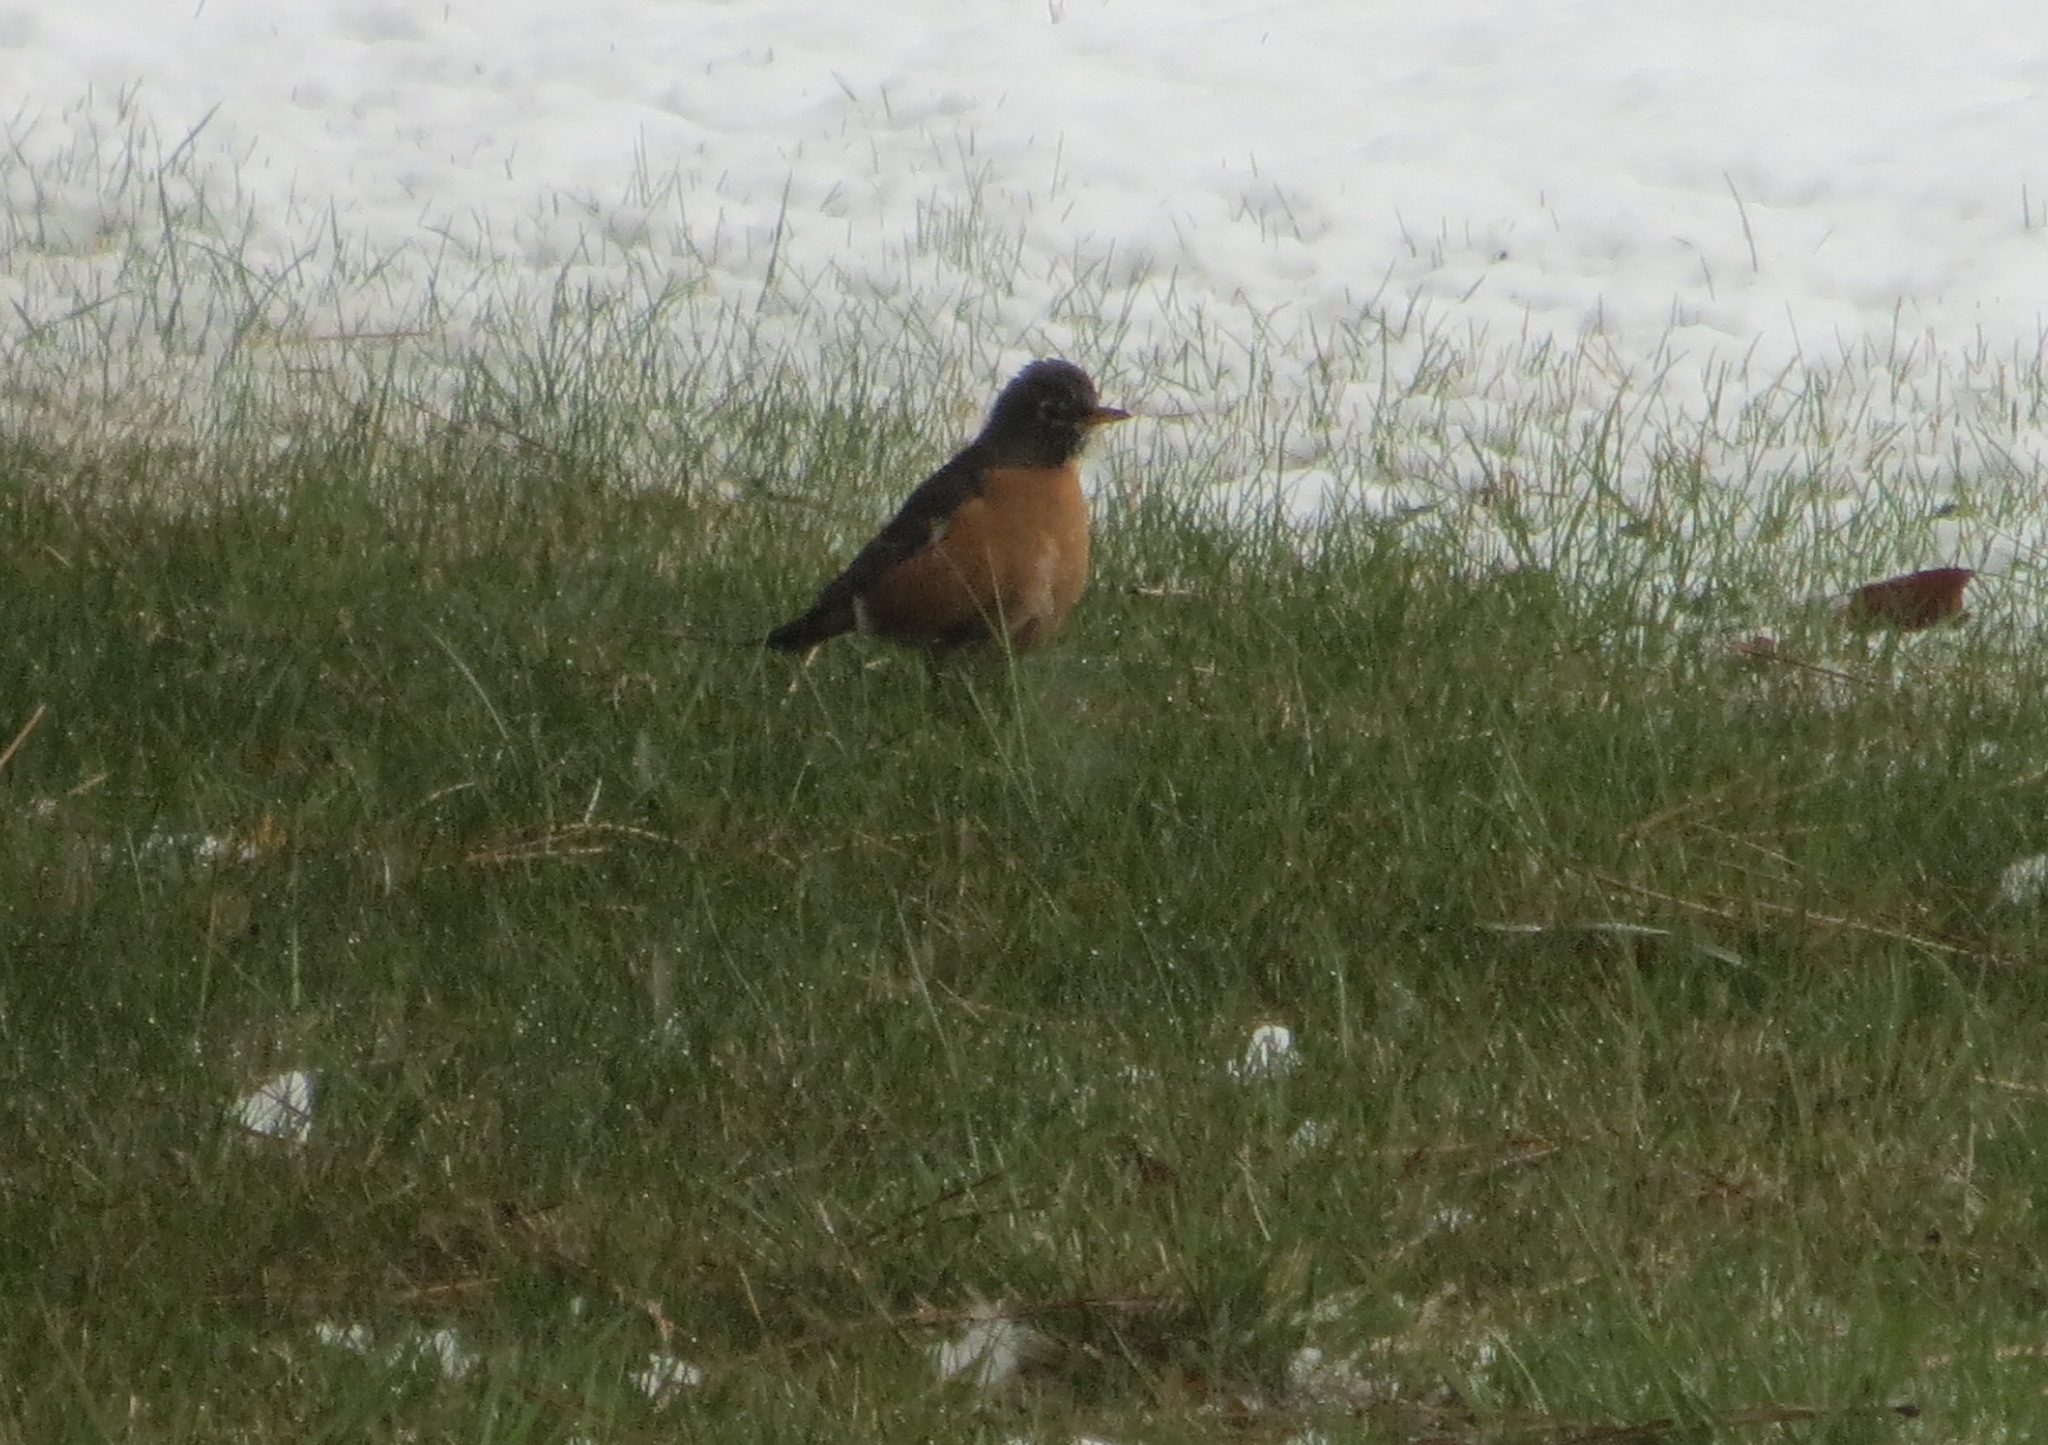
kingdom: Animalia
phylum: Chordata
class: Aves
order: Passeriformes
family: Turdidae
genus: Turdus
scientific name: Turdus migratorius
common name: American robin
